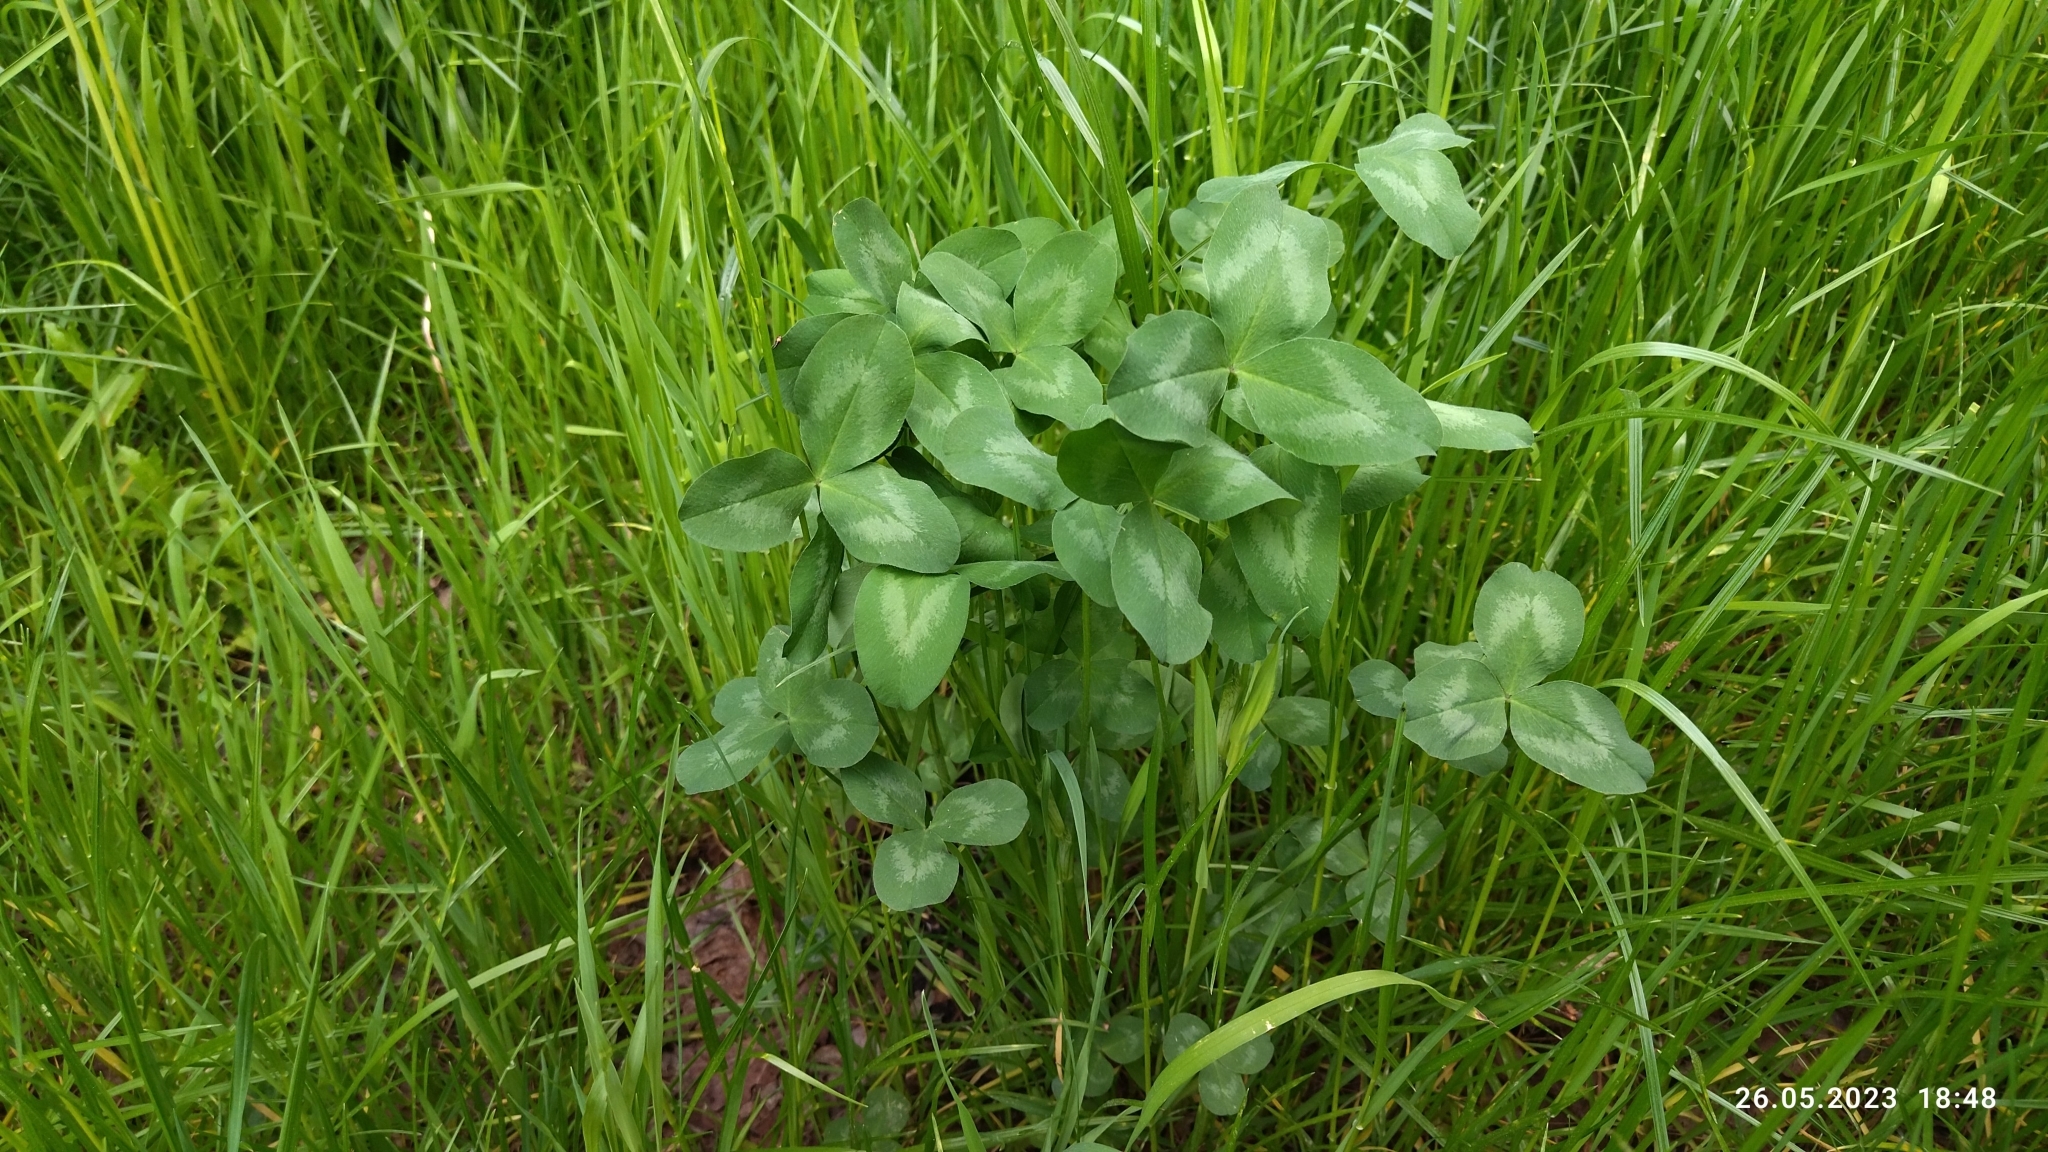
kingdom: Plantae
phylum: Tracheophyta
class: Magnoliopsida
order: Fabales
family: Fabaceae
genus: Trifolium
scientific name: Trifolium pratense
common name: Red clover
